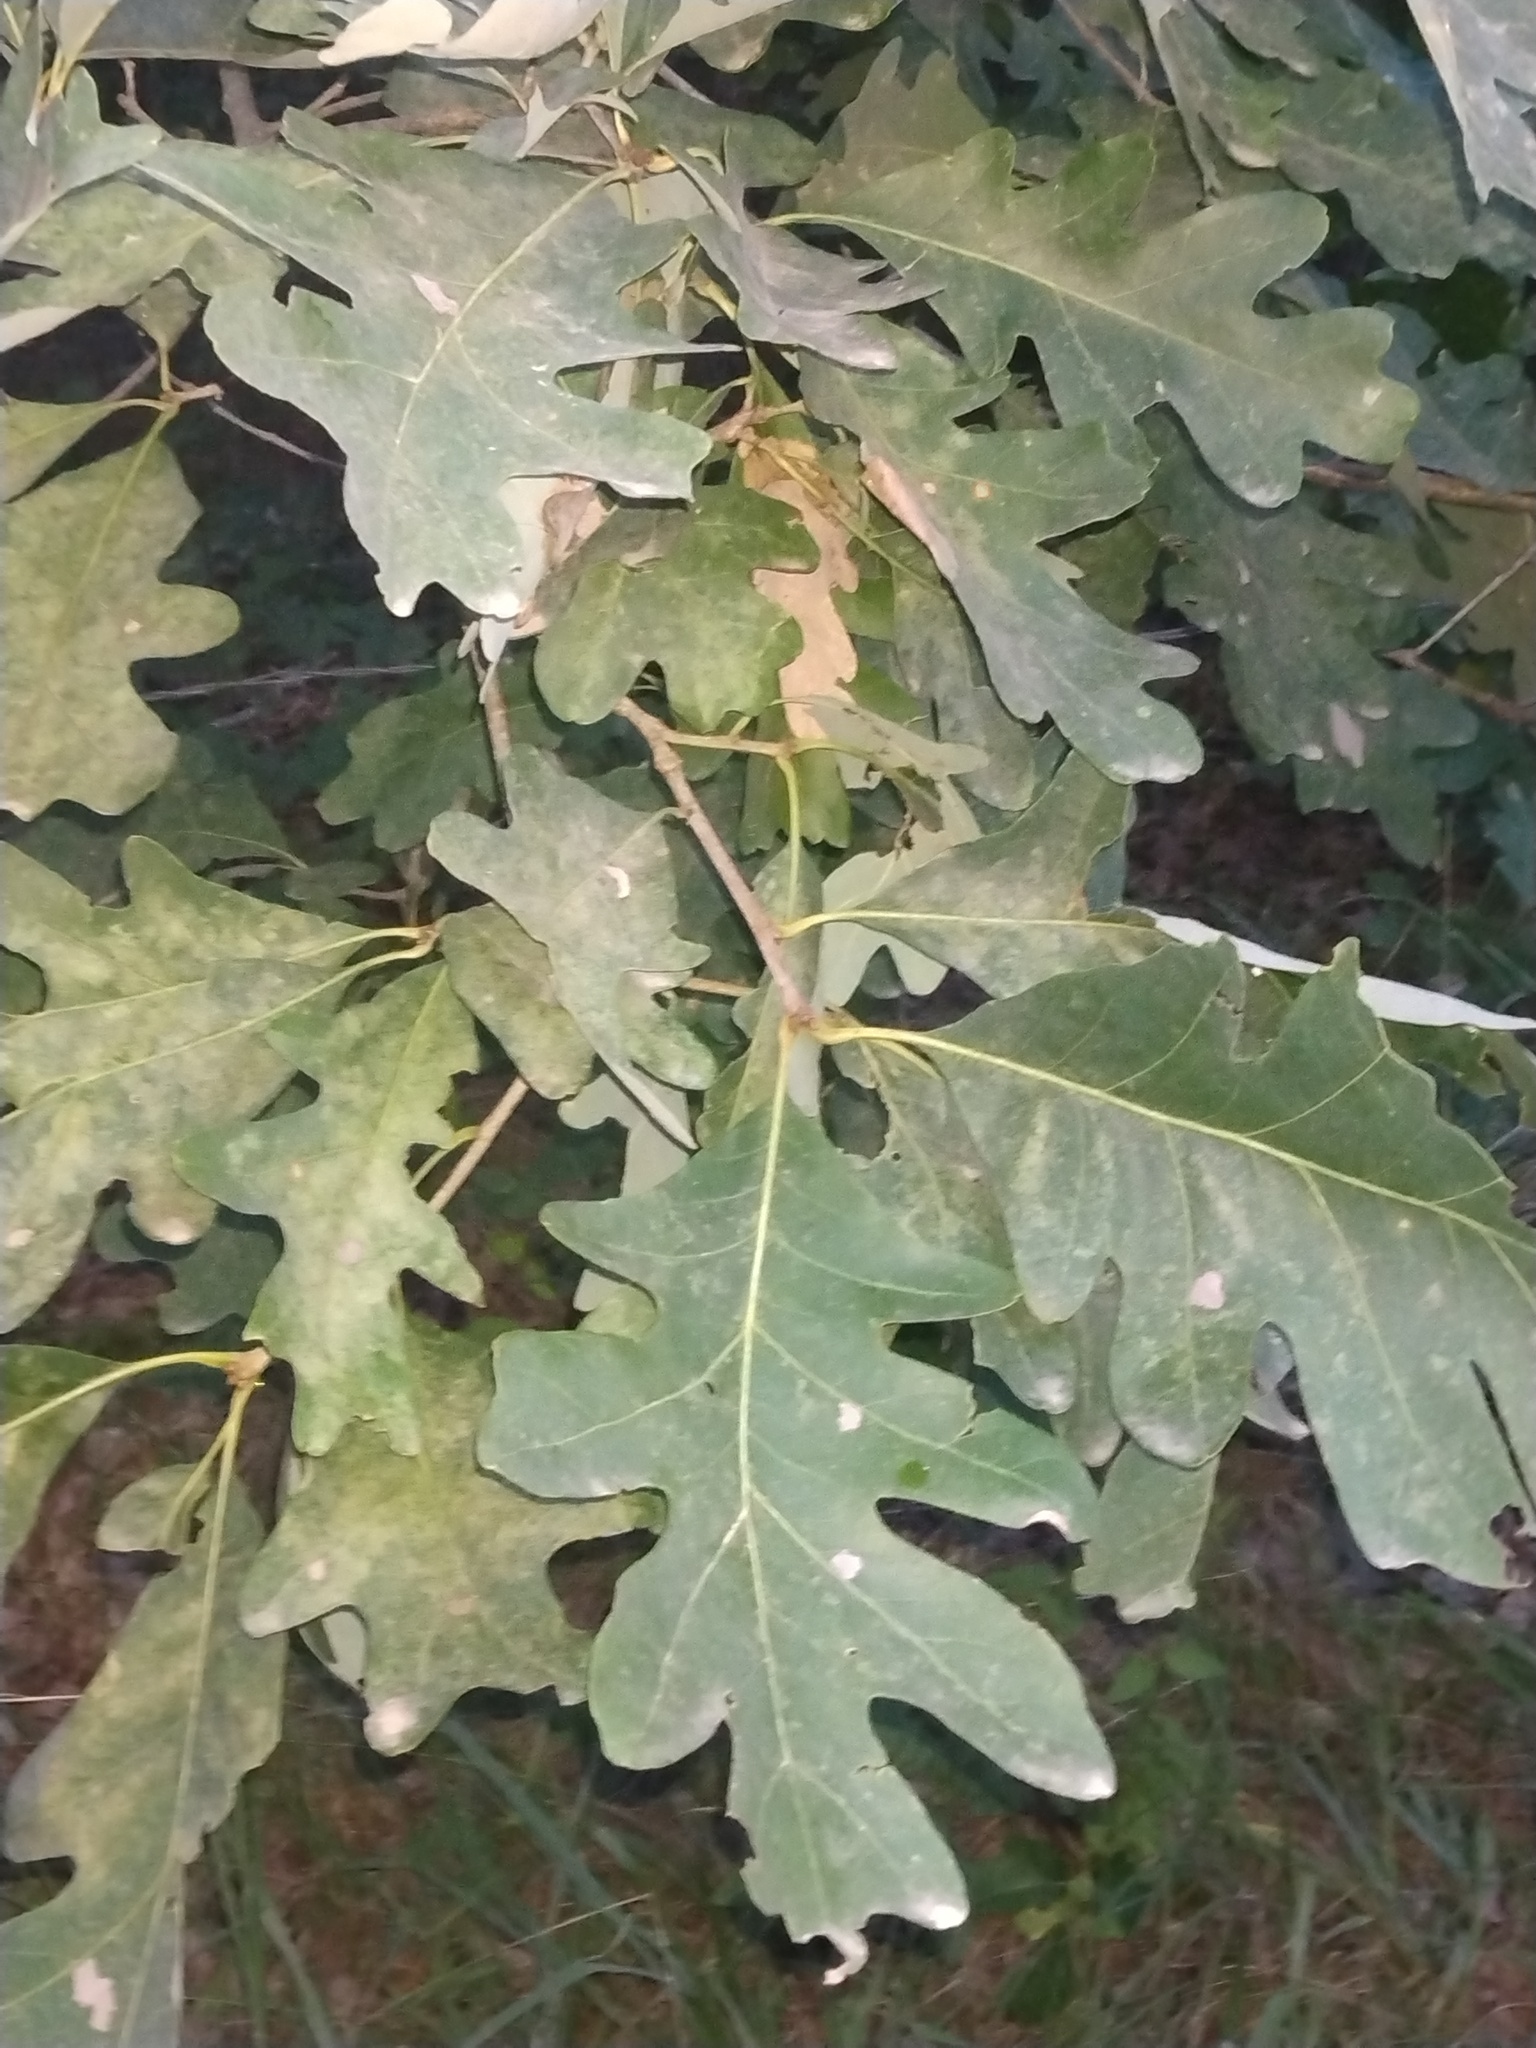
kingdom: Plantae
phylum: Tracheophyta
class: Magnoliopsida
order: Fagales
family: Fagaceae
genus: Quercus
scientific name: Quercus alba
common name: White oak
